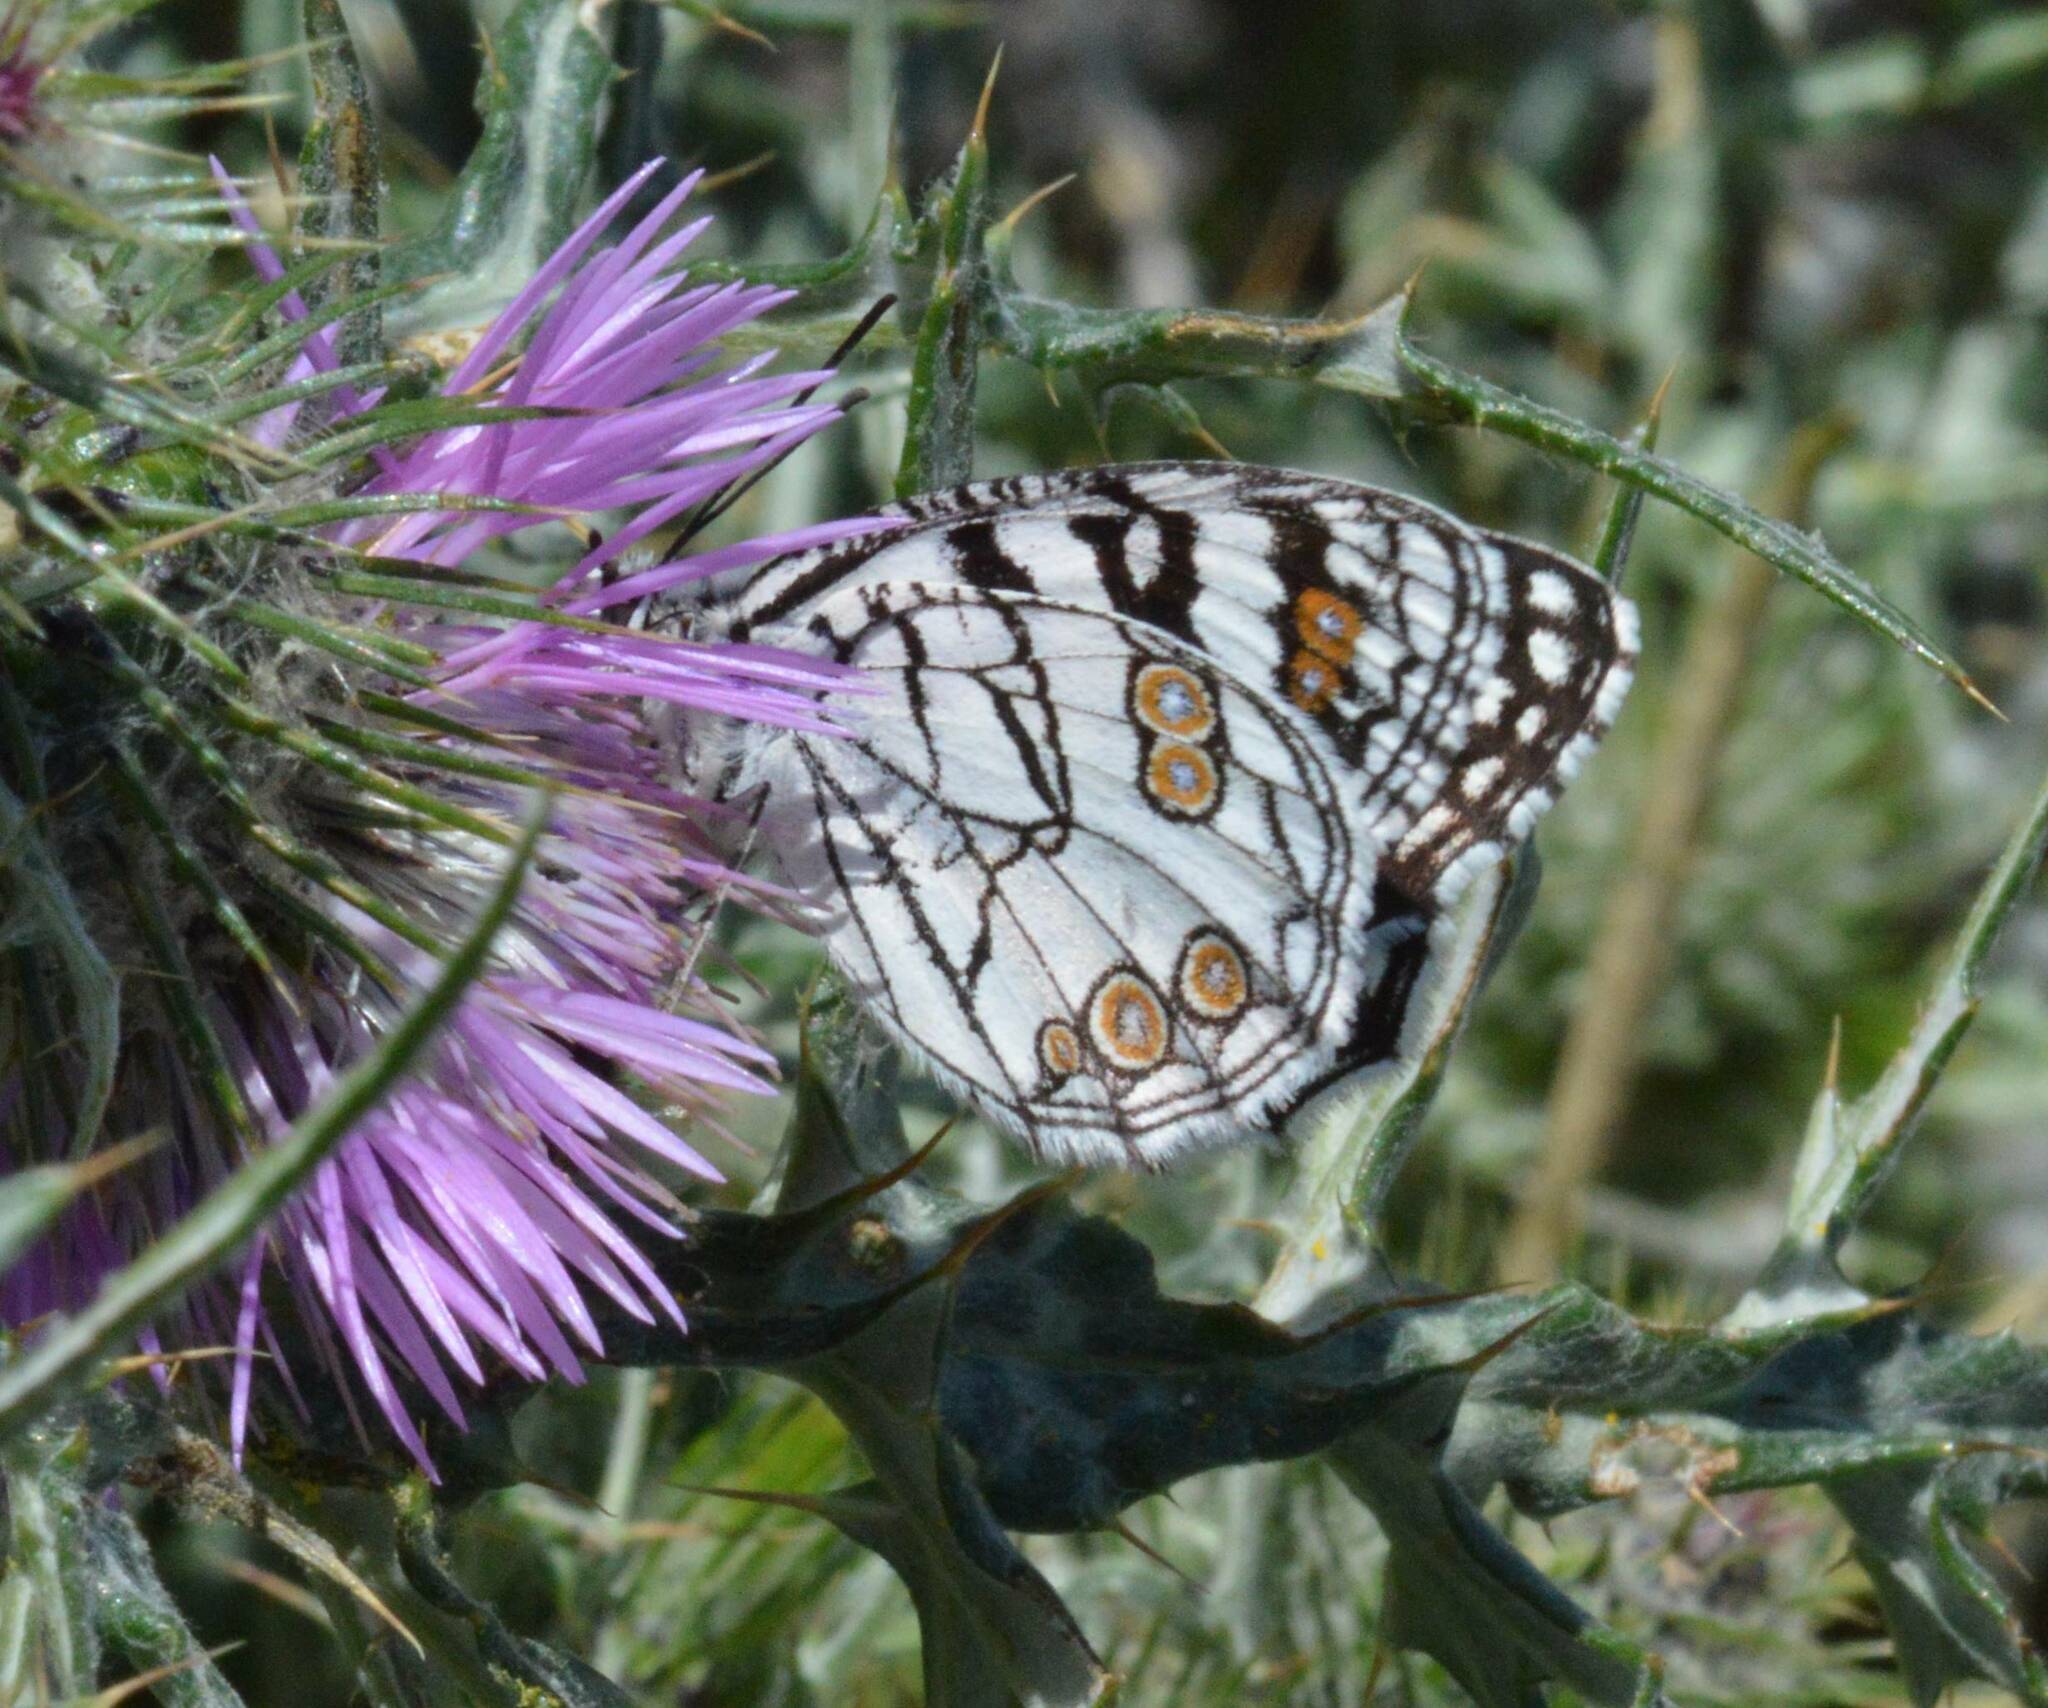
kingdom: Animalia
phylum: Arthropoda
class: Insecta
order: Lepidoptera
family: Nymphalidae
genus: Melanargia
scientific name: Melanargia ines
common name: Spanish marbled white
